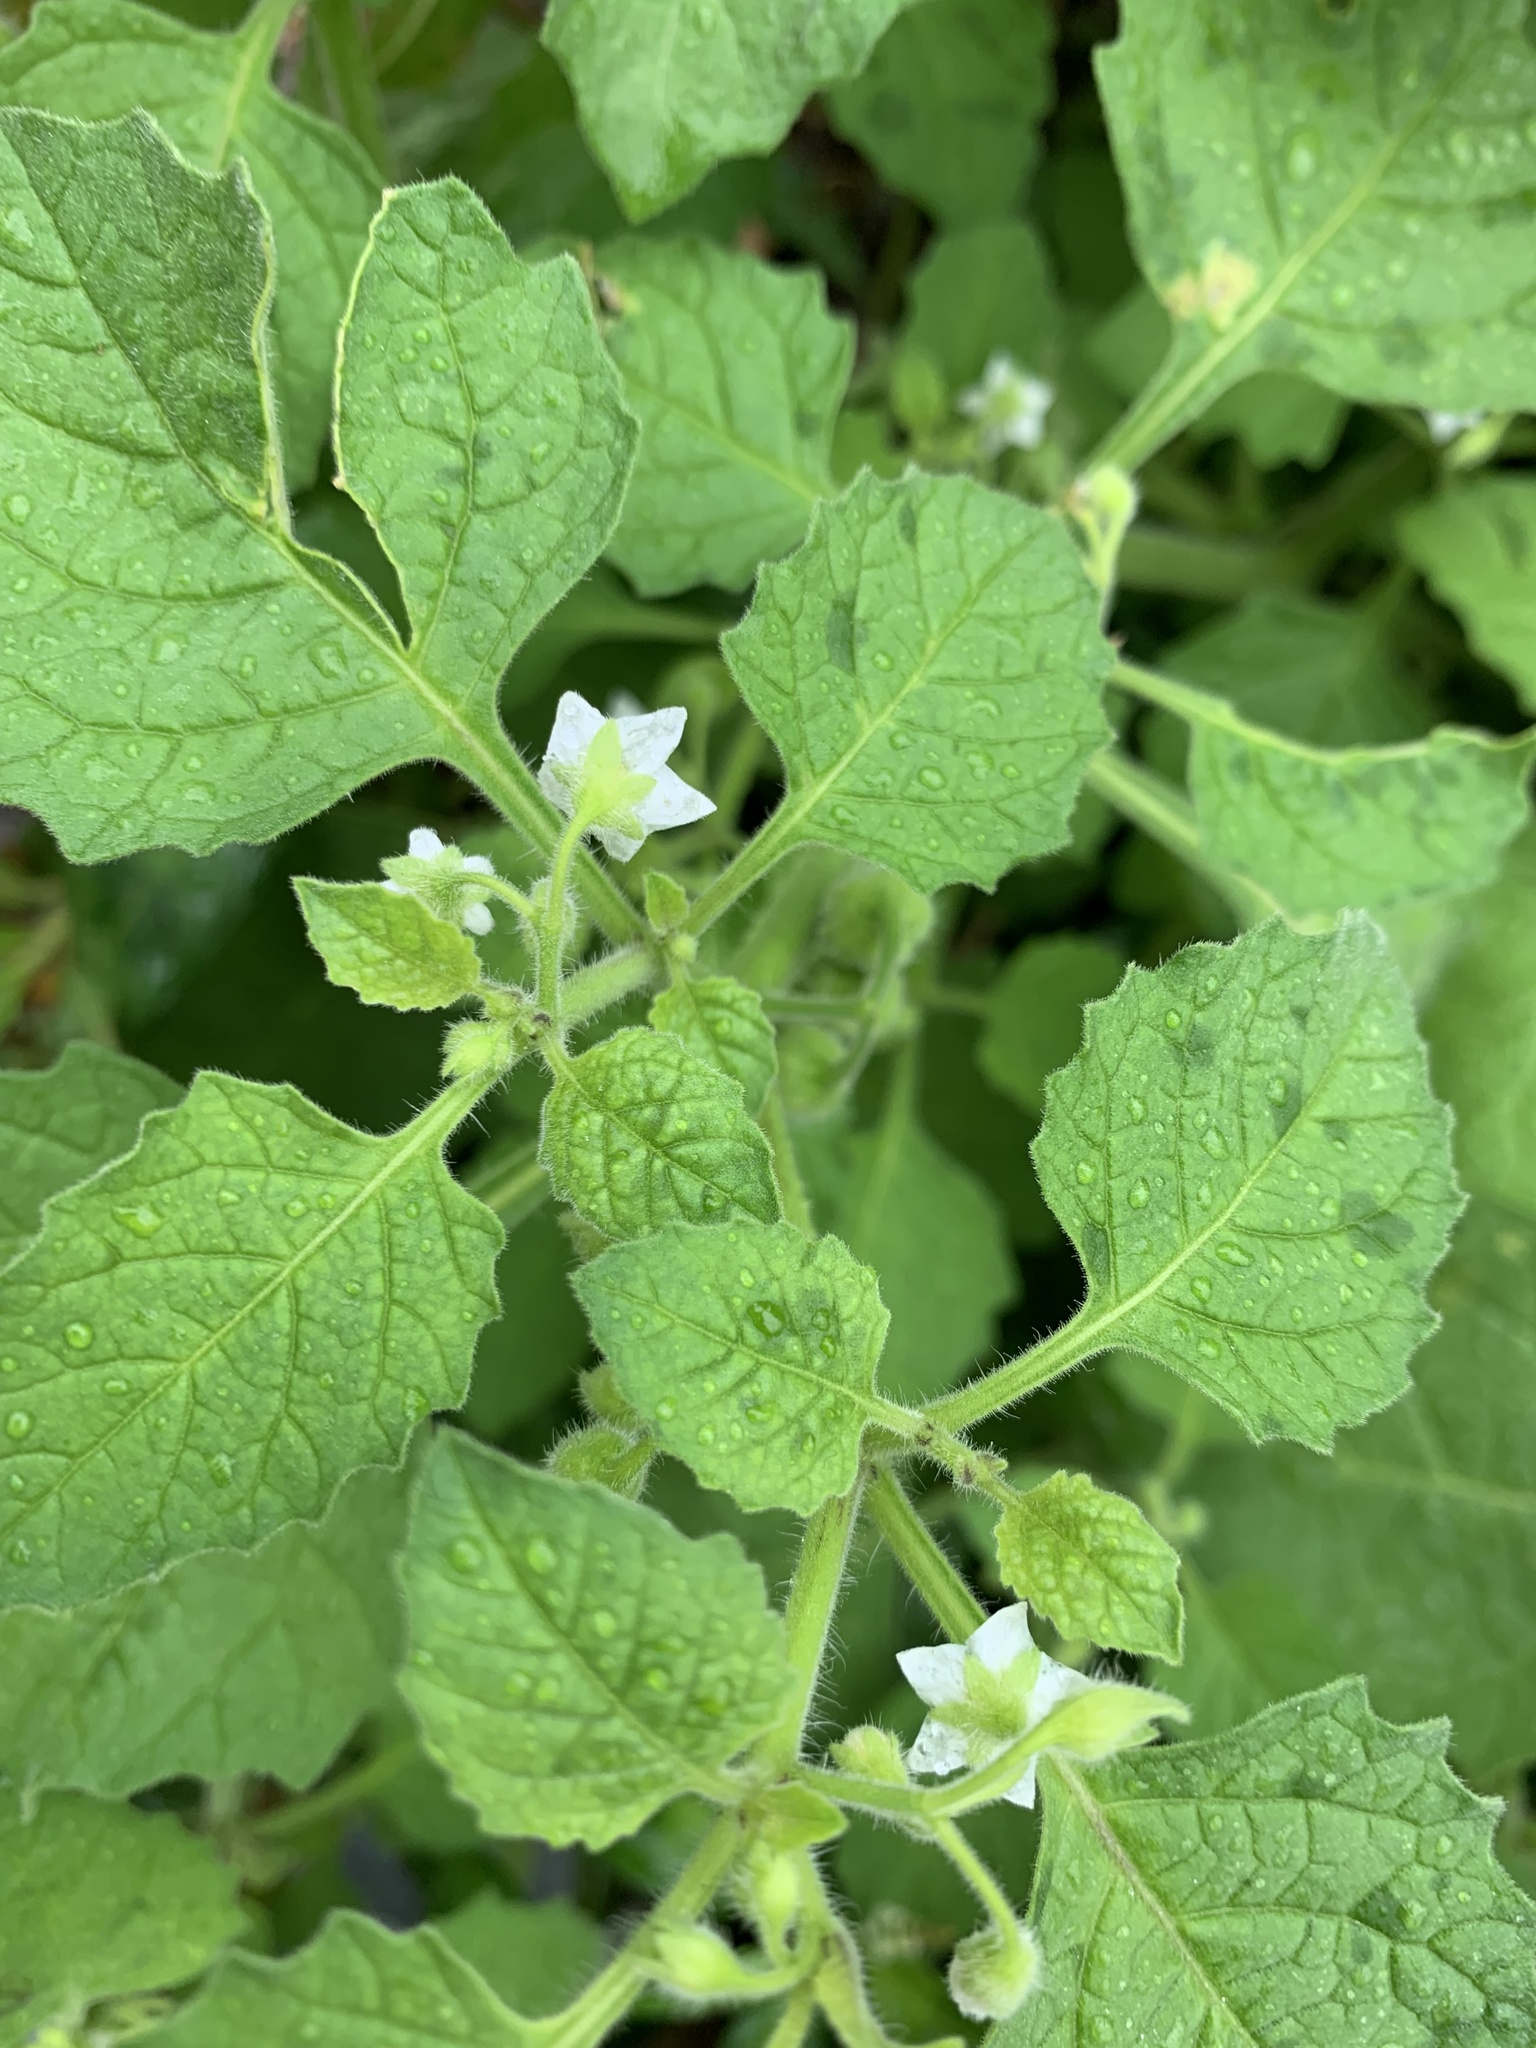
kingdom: Plantae
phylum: Tracheophyta
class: Magnoliopsida
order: Solanales
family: Solanaceae
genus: Solanum
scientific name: Solanum sarrachoides
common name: Leafy-fruited nightshade
